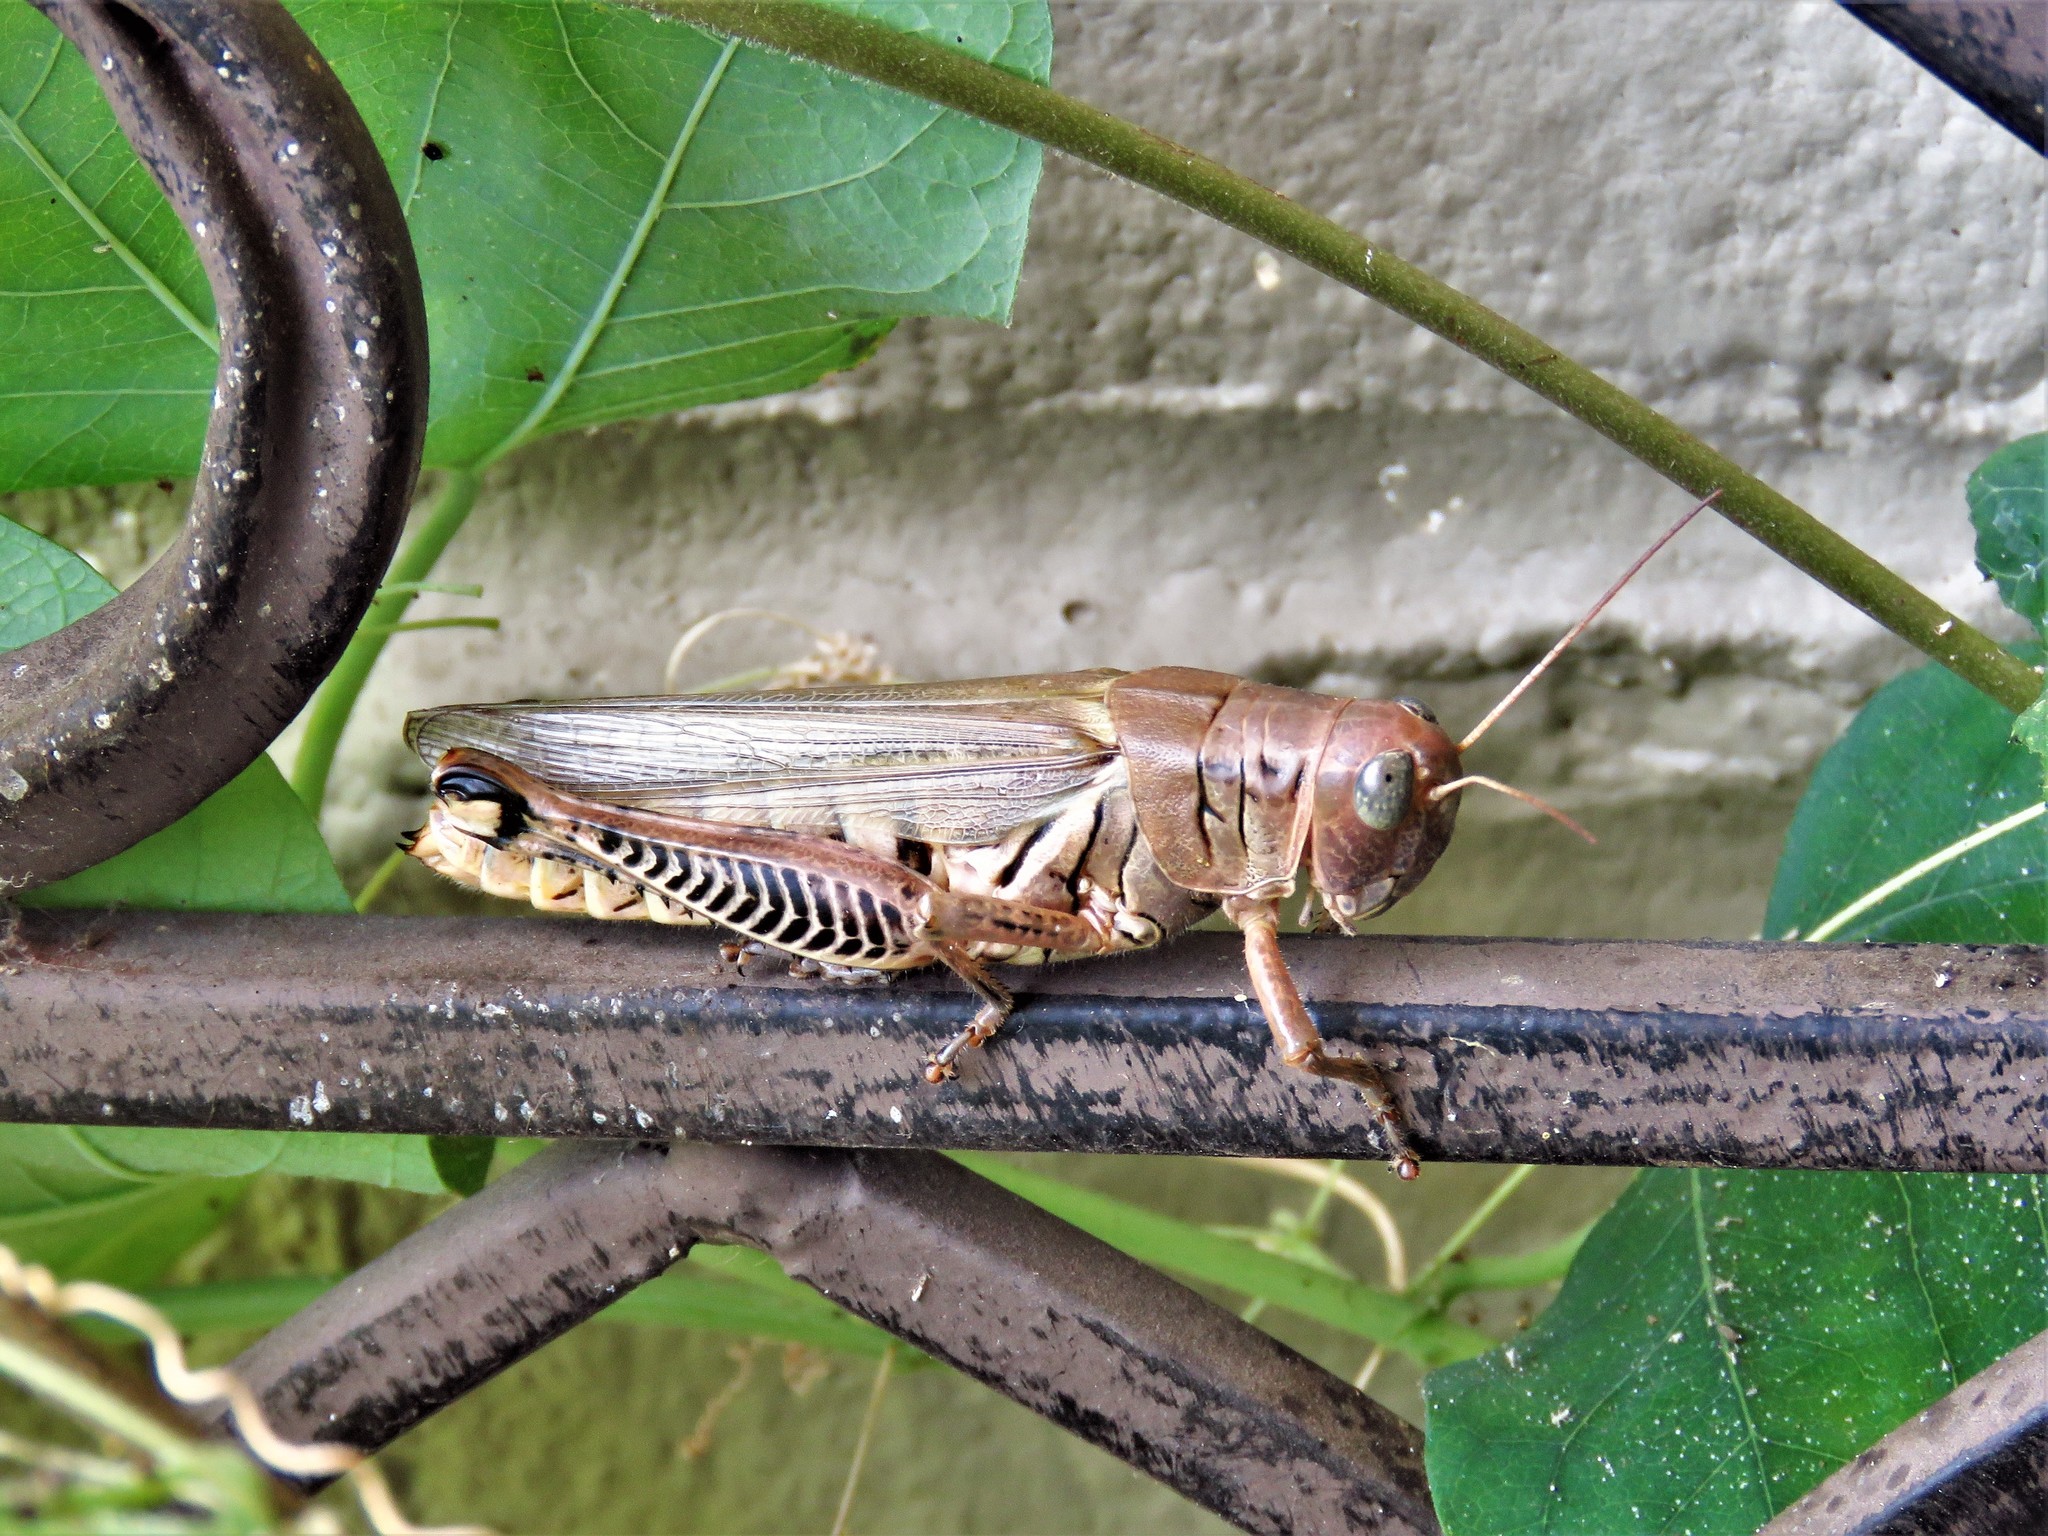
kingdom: Animalia
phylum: Arthropoda
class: Insecta
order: Orthoptera
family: Acrididae
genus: Melanoplus
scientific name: Melanoplus differentialis
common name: Differential grasshopper
